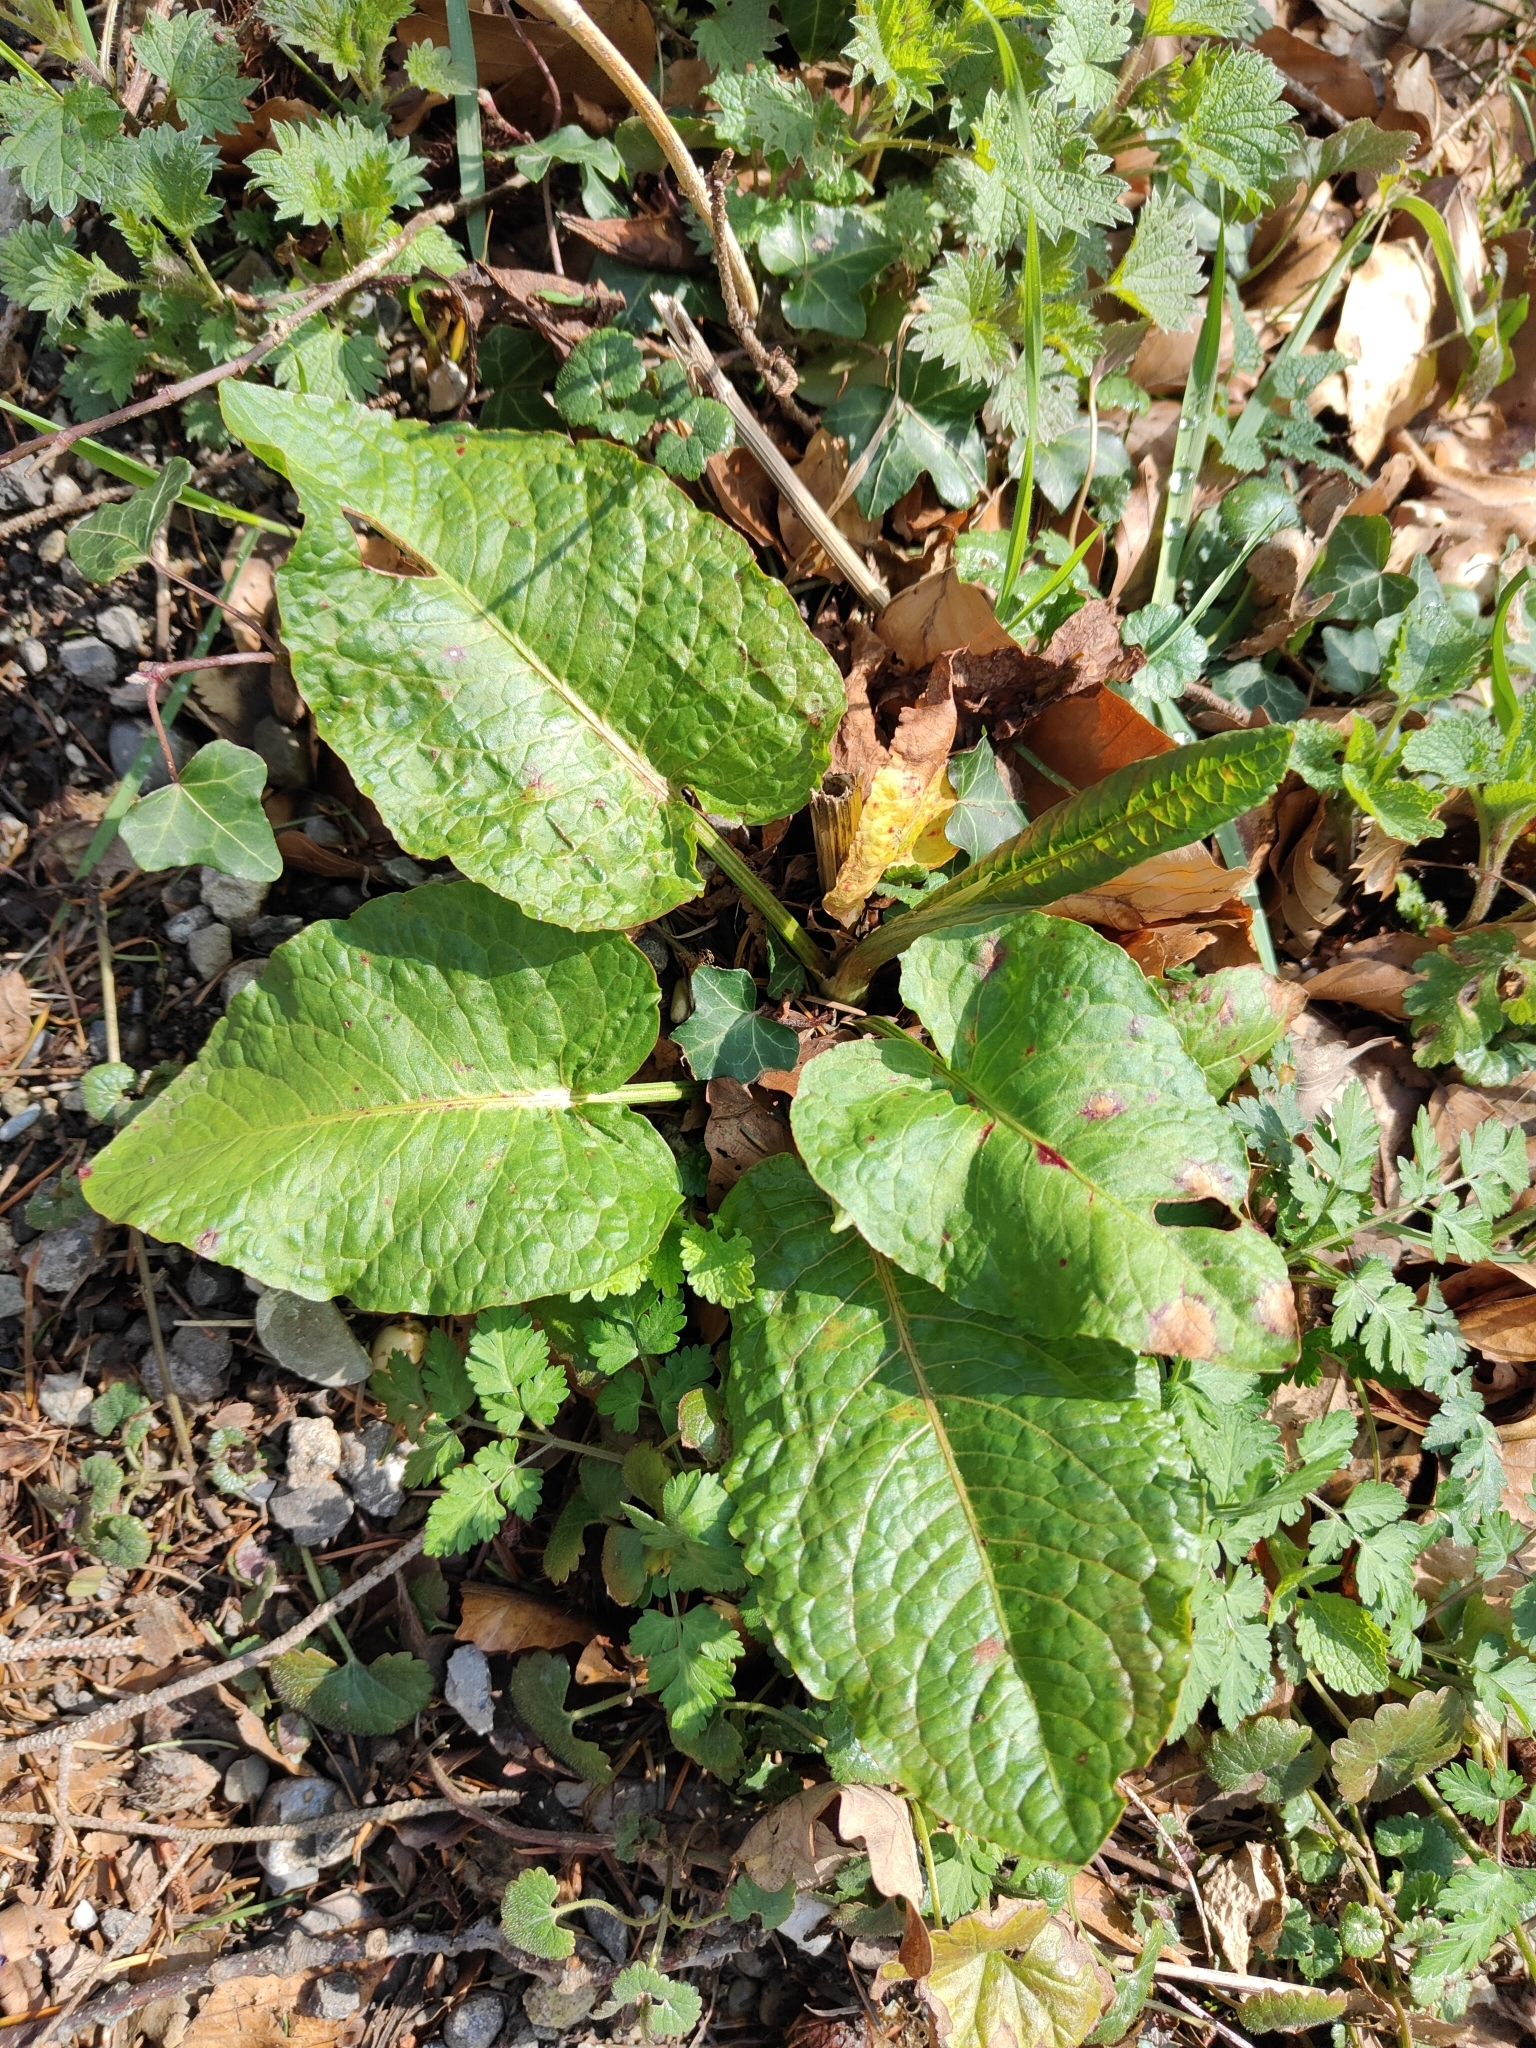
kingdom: Plantae
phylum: Tracheophyta
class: Magnoliopsida
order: Caryophyllales
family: Polygonaceae
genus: Rumex
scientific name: Rumex obtusifolius
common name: Bitter dock
